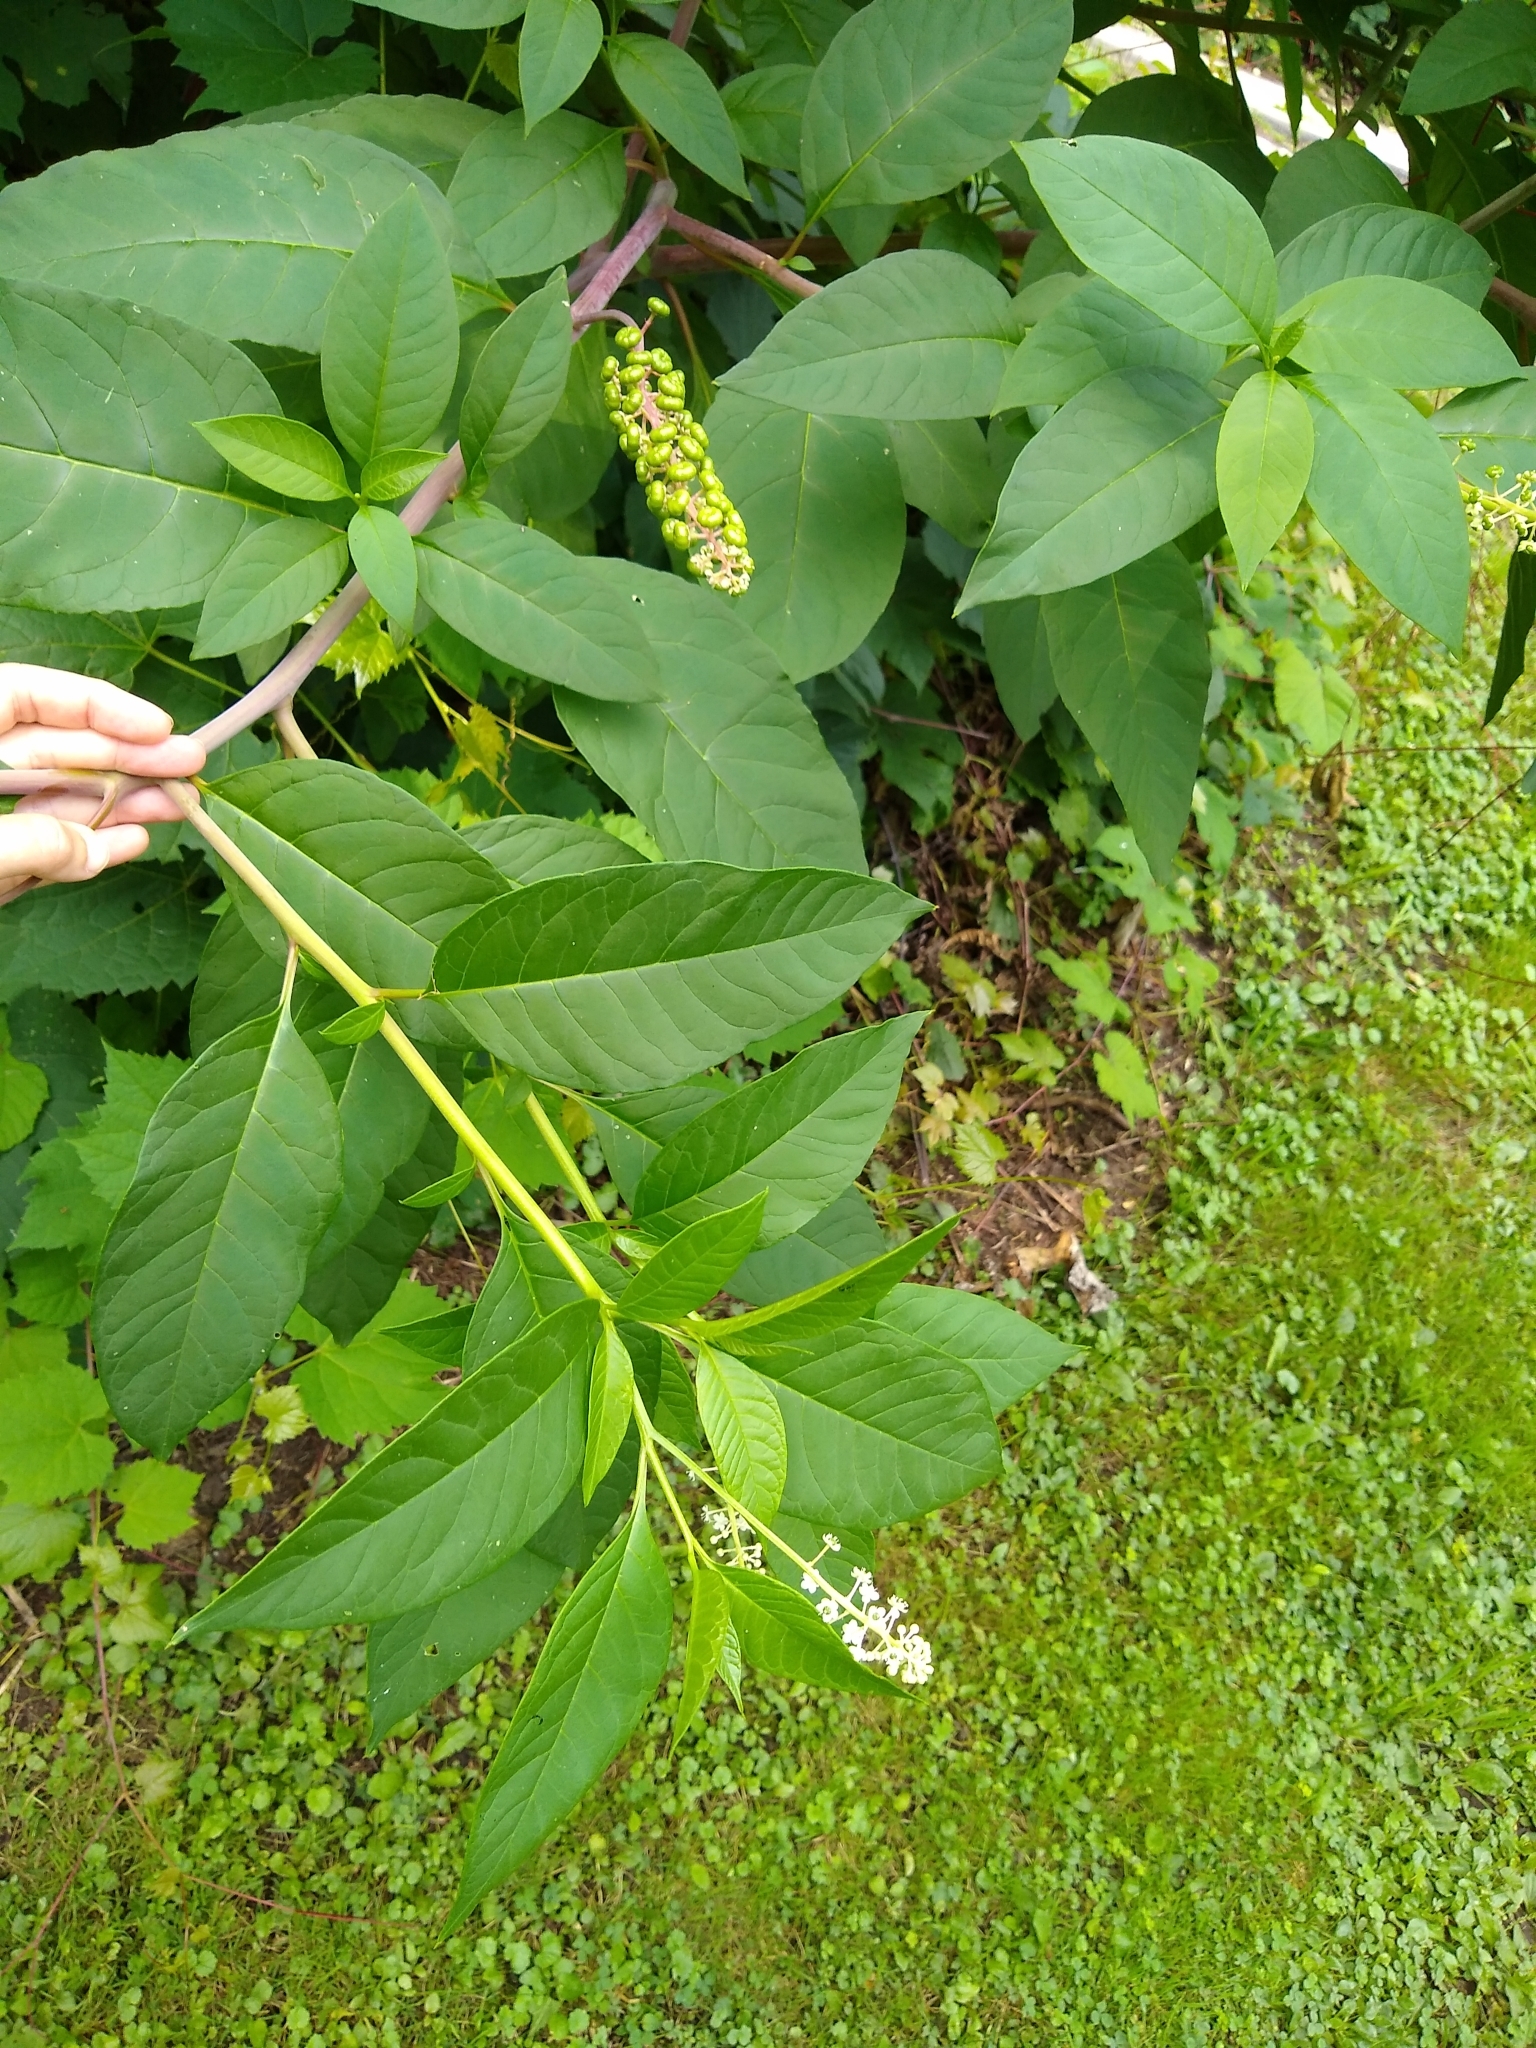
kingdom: Plantae
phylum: Tracheophyta
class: Magnoliopsida
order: Caryophyllales
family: Phytolaccaceae
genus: Phytolacca
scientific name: Phytolacca americana
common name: American pokeweed
